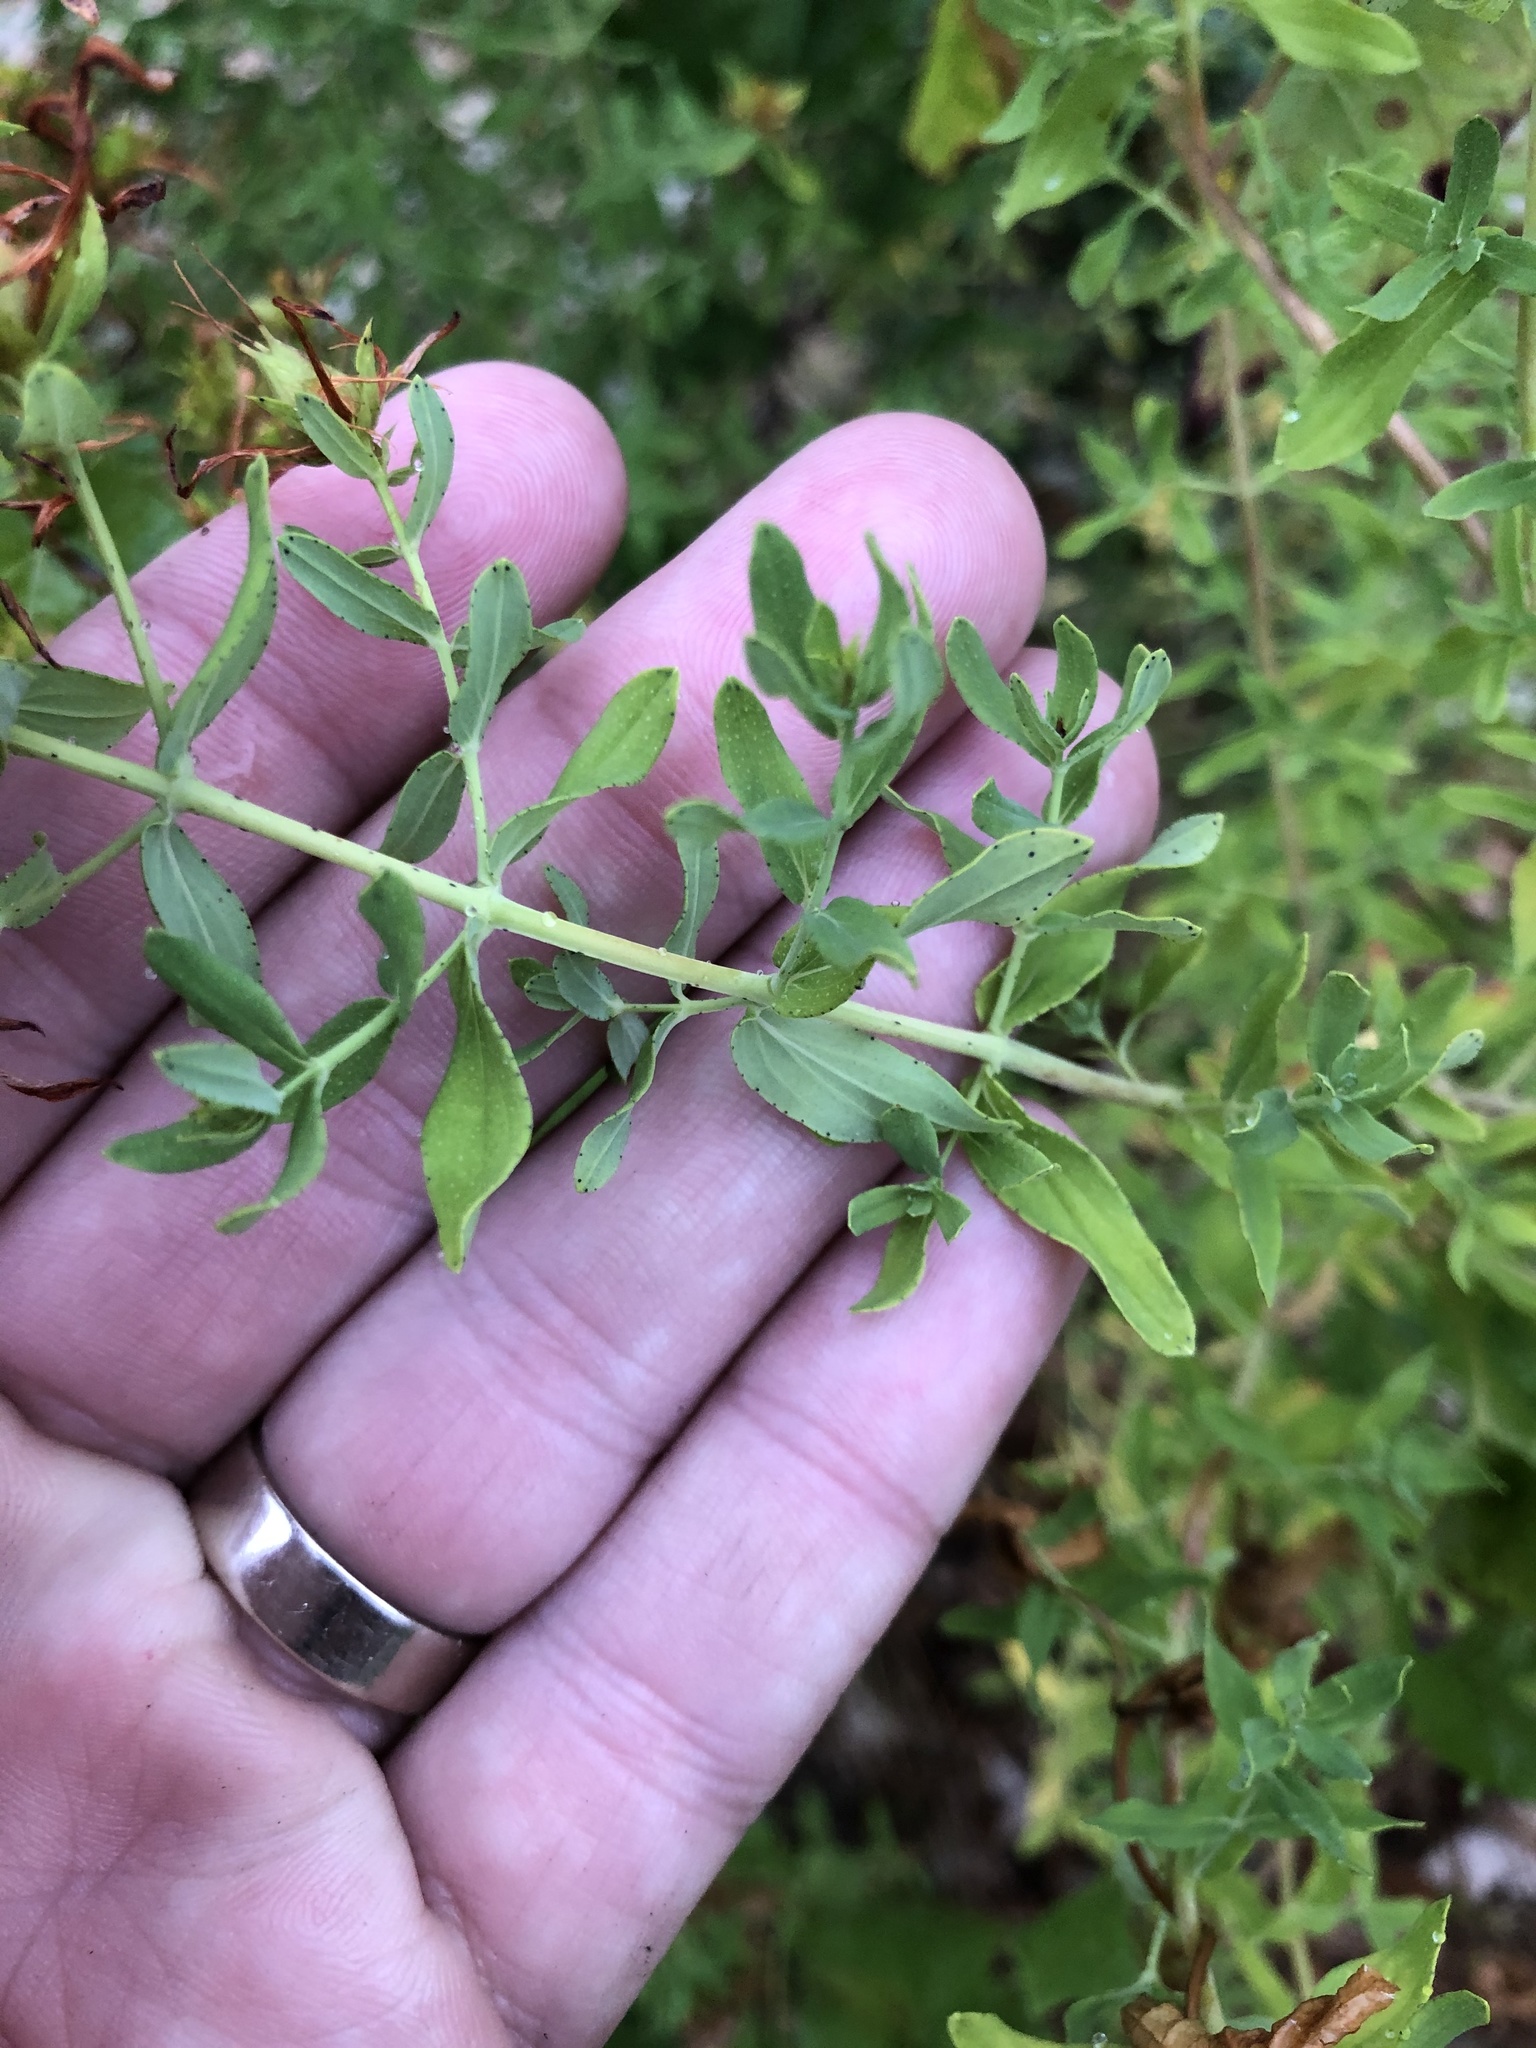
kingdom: Plantae
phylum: Tracheophyta
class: Magnoliopsida
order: Malpighiales
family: Hypericaceae
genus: Hypericum
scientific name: Hypericum perforatum
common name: Common st. johnswort
